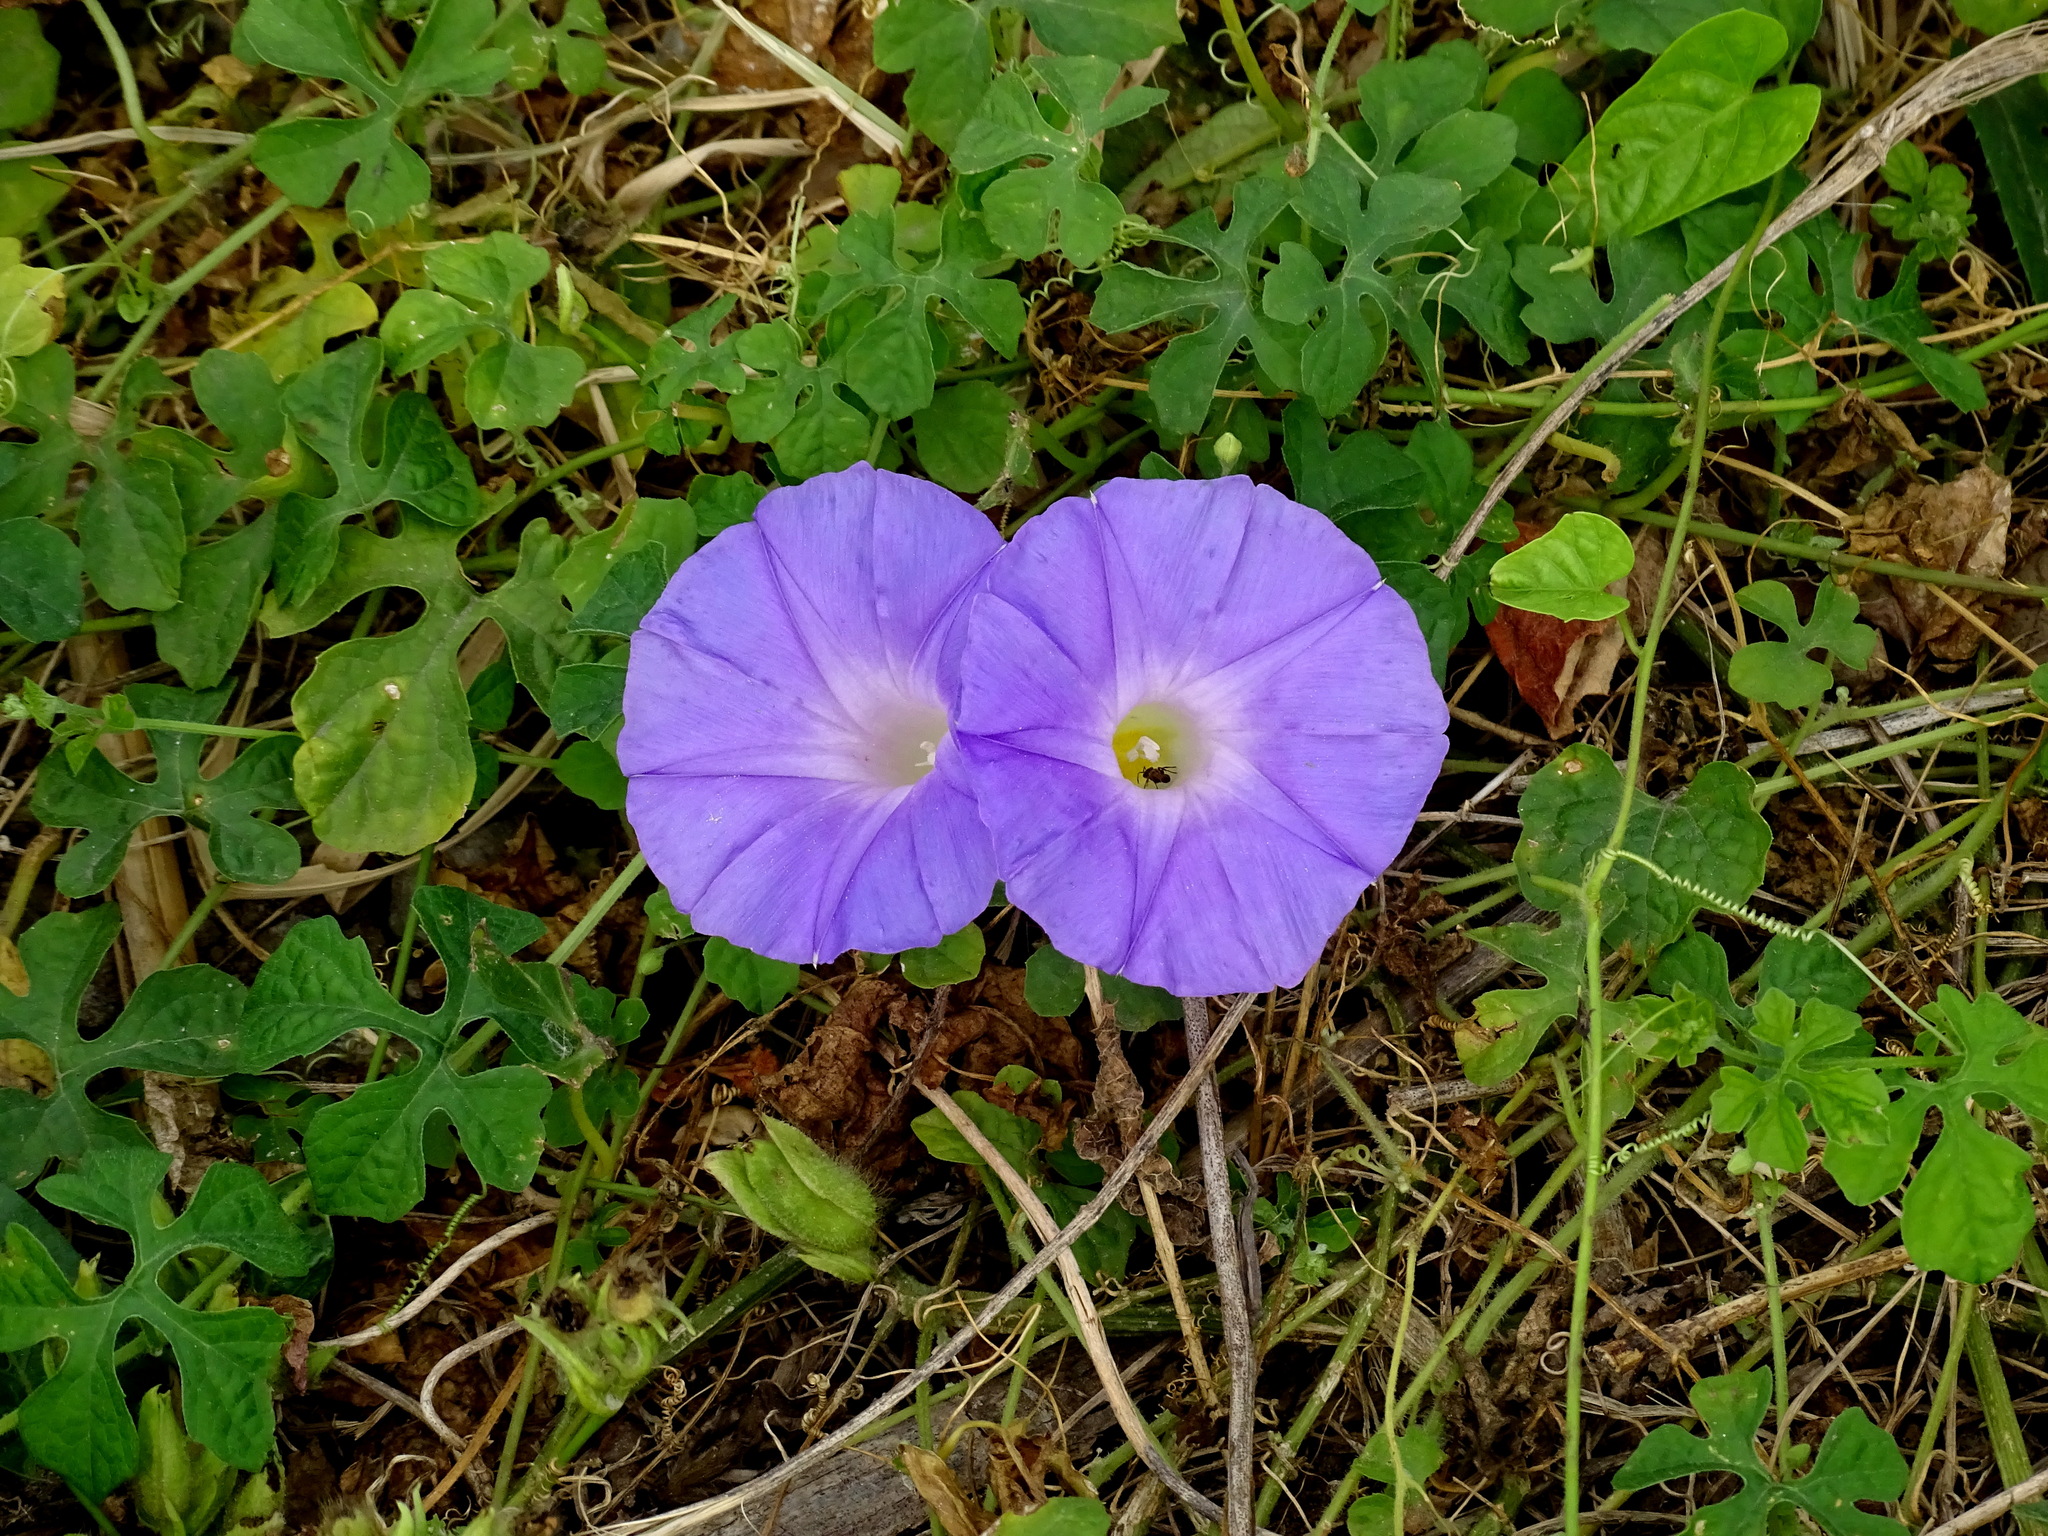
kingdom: Plantae
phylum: Tracheophyta
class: Magnoliopsida
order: Solanales
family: Convolvulaceae
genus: Ipomoea
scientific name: Ipomoea mitchelliae
